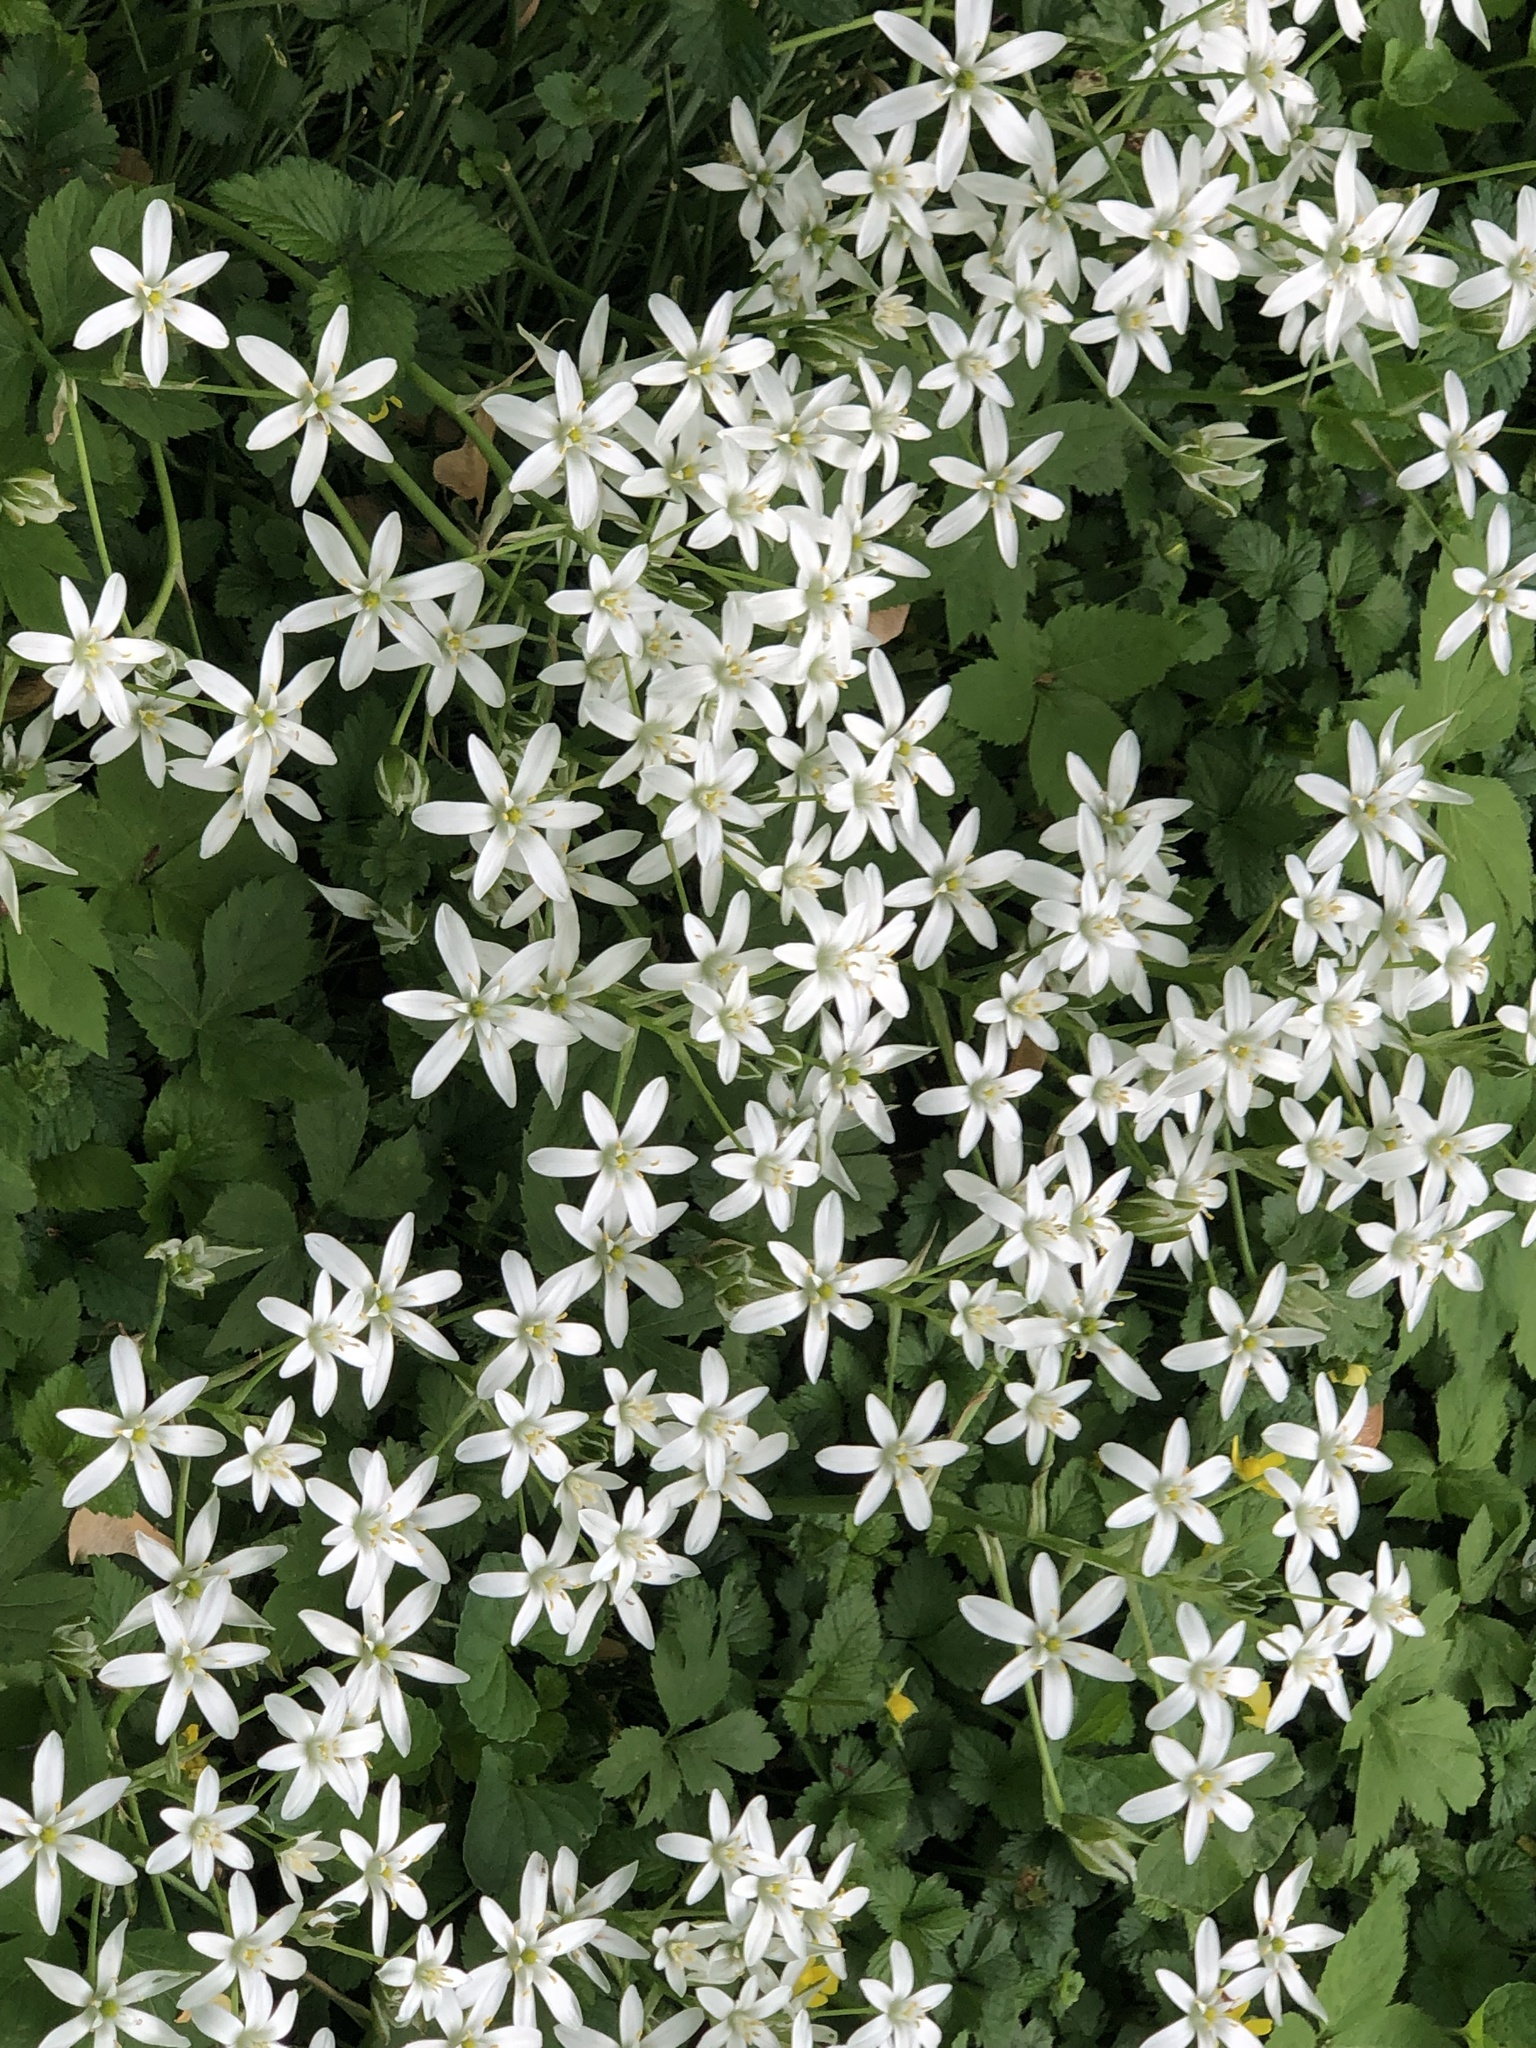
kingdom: Plantae
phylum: Tracheophyta
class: Liliopsida
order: Asparagales
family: Asparagaceae
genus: Ornithogalum
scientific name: Ornithogalum umbellatum
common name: Garden star-of-bethlehem
